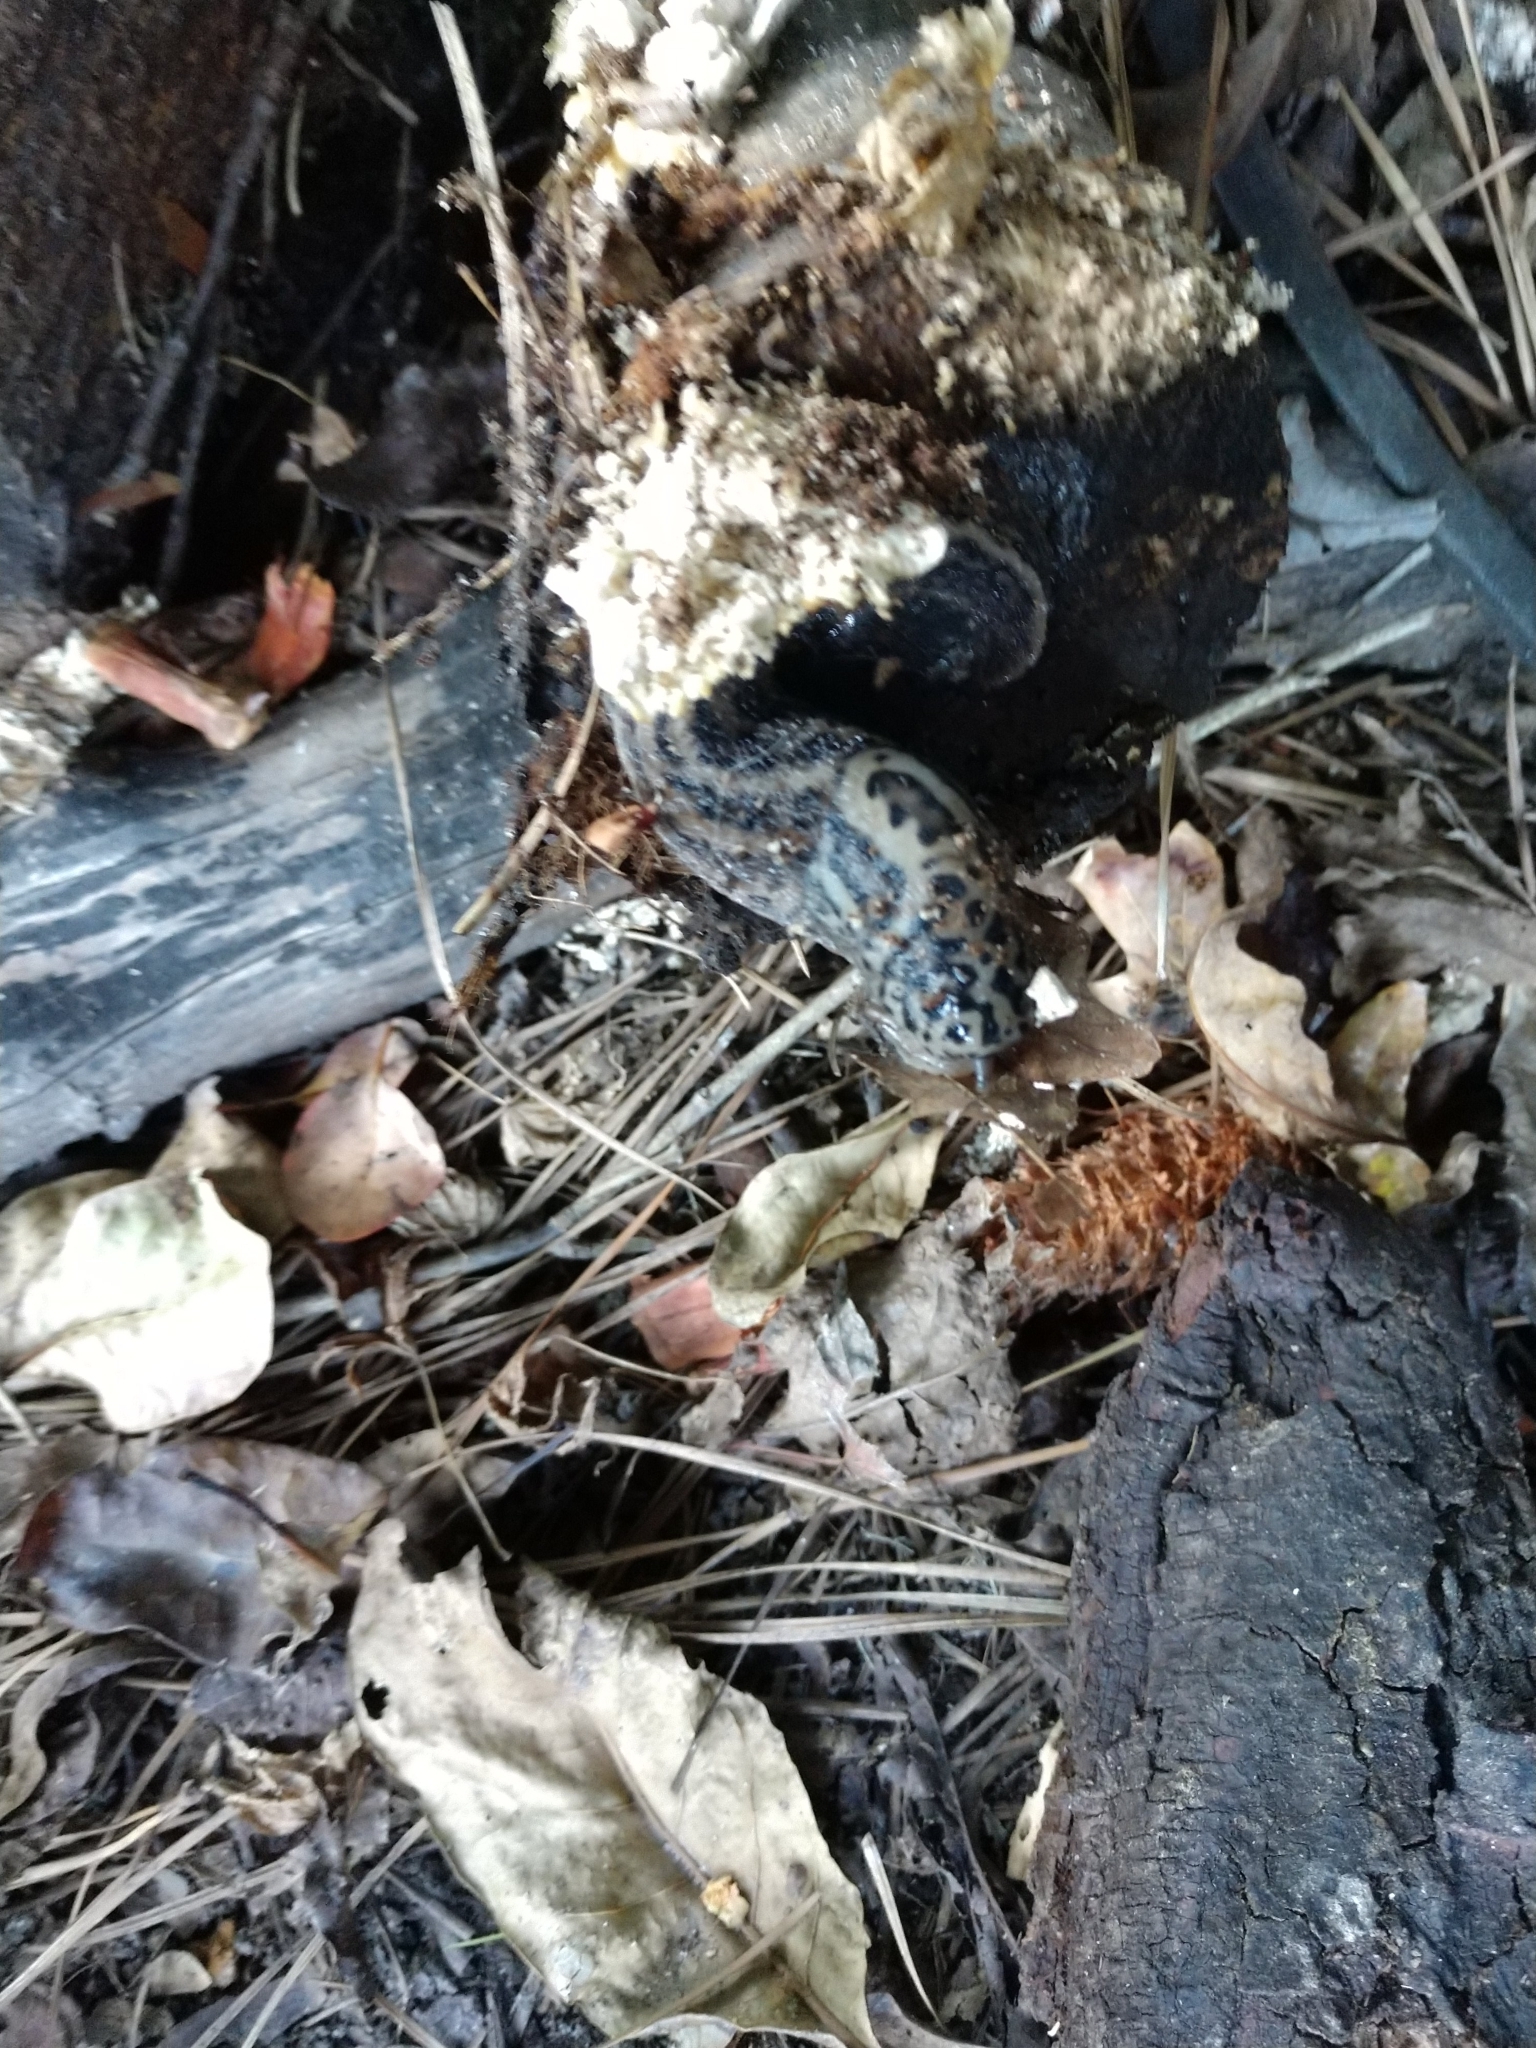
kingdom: Animalia
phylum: Mollusca
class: Gastropoda
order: Stylommatophora
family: Limacidae
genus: Limax
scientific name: Limax maximus
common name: Great grey slug
